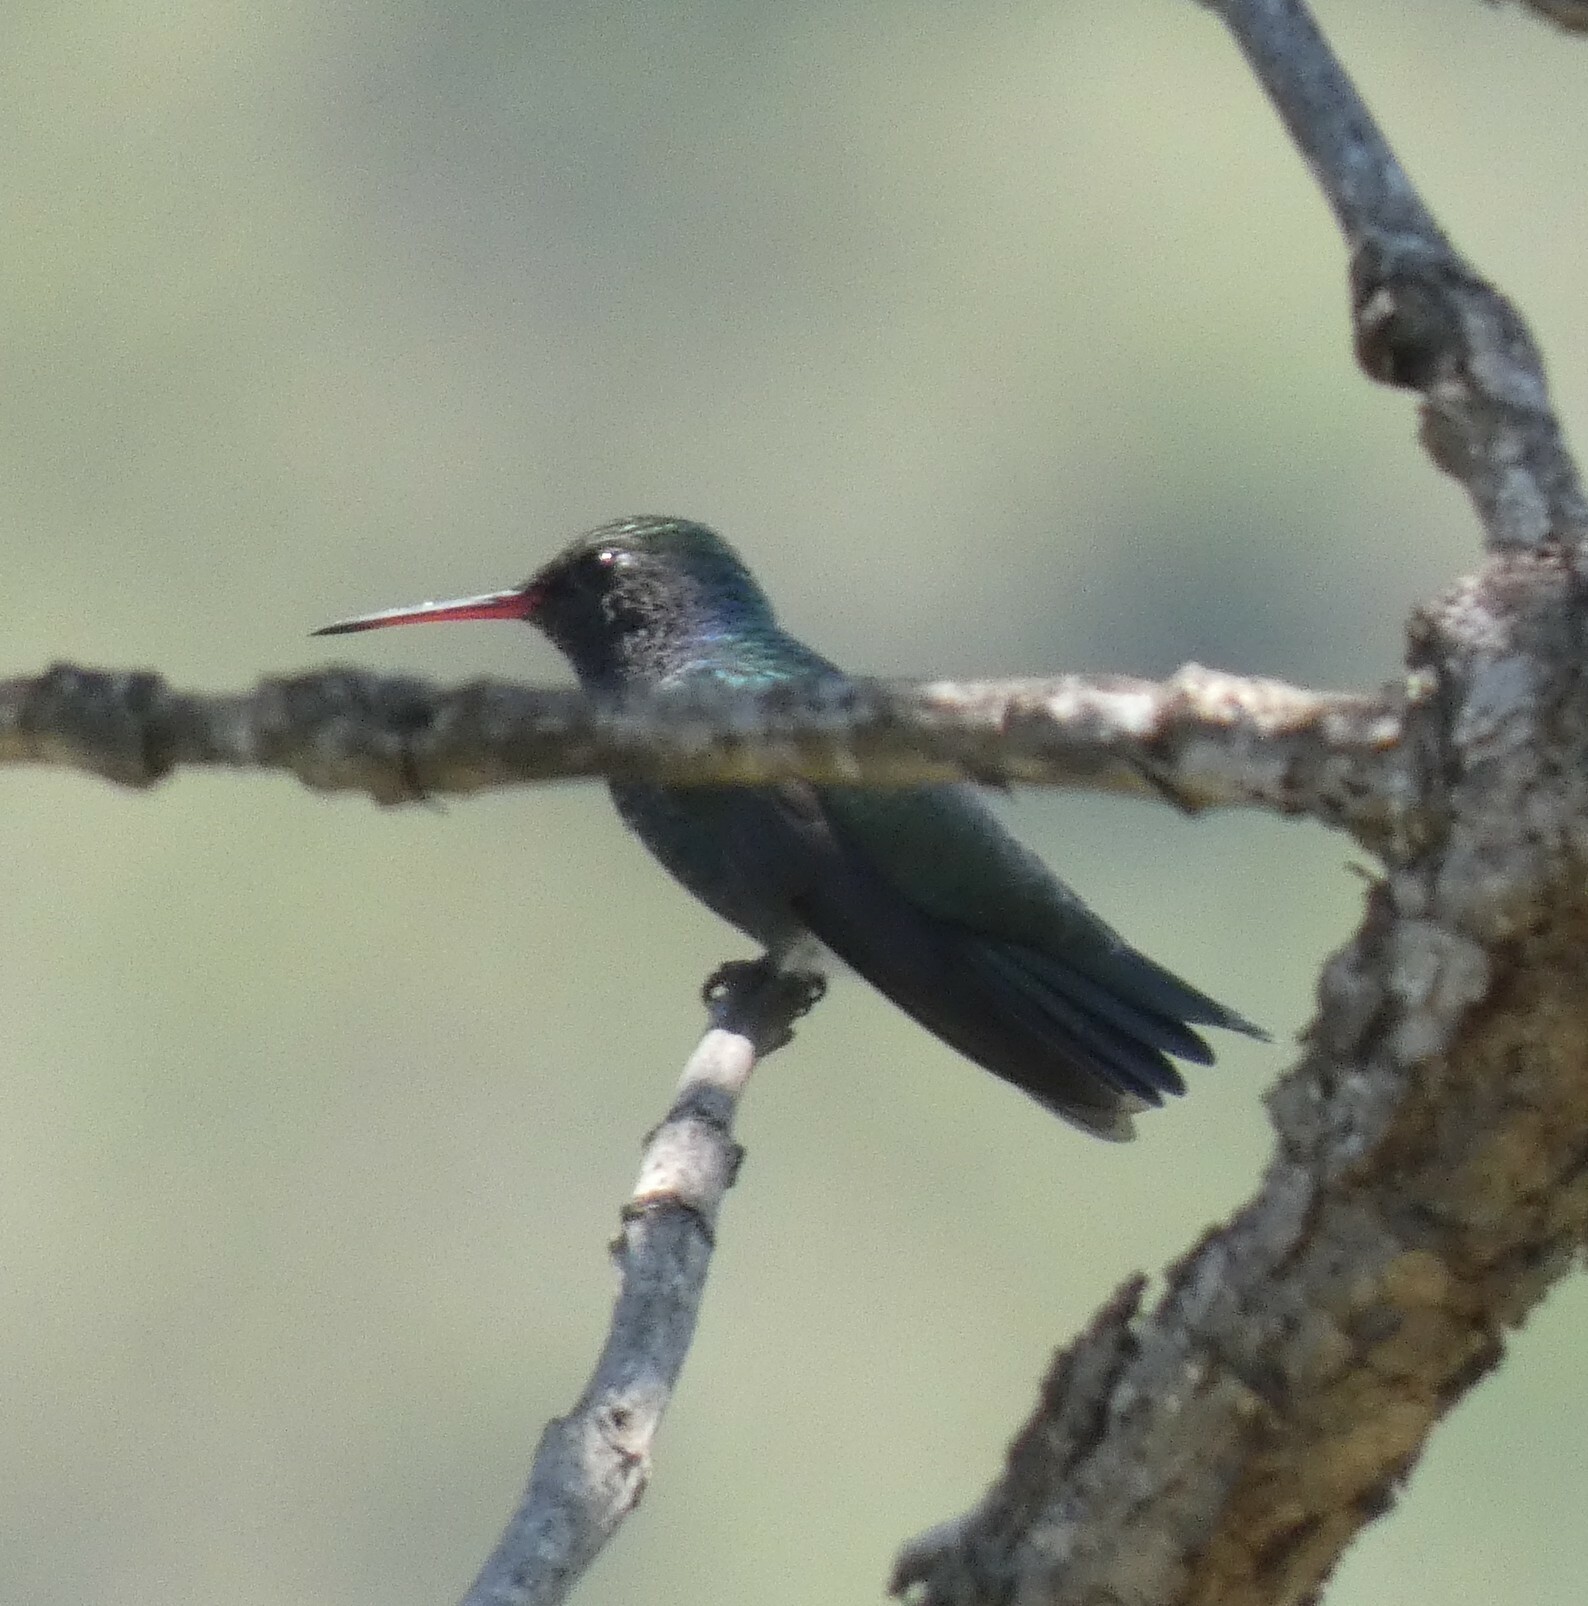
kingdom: Animalia
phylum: Chordata
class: Aves
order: Apodiformes
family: Trochilidae
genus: Chlorostilbon
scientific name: Chlorostilbon lucidus
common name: Glittering-bellied emerald
